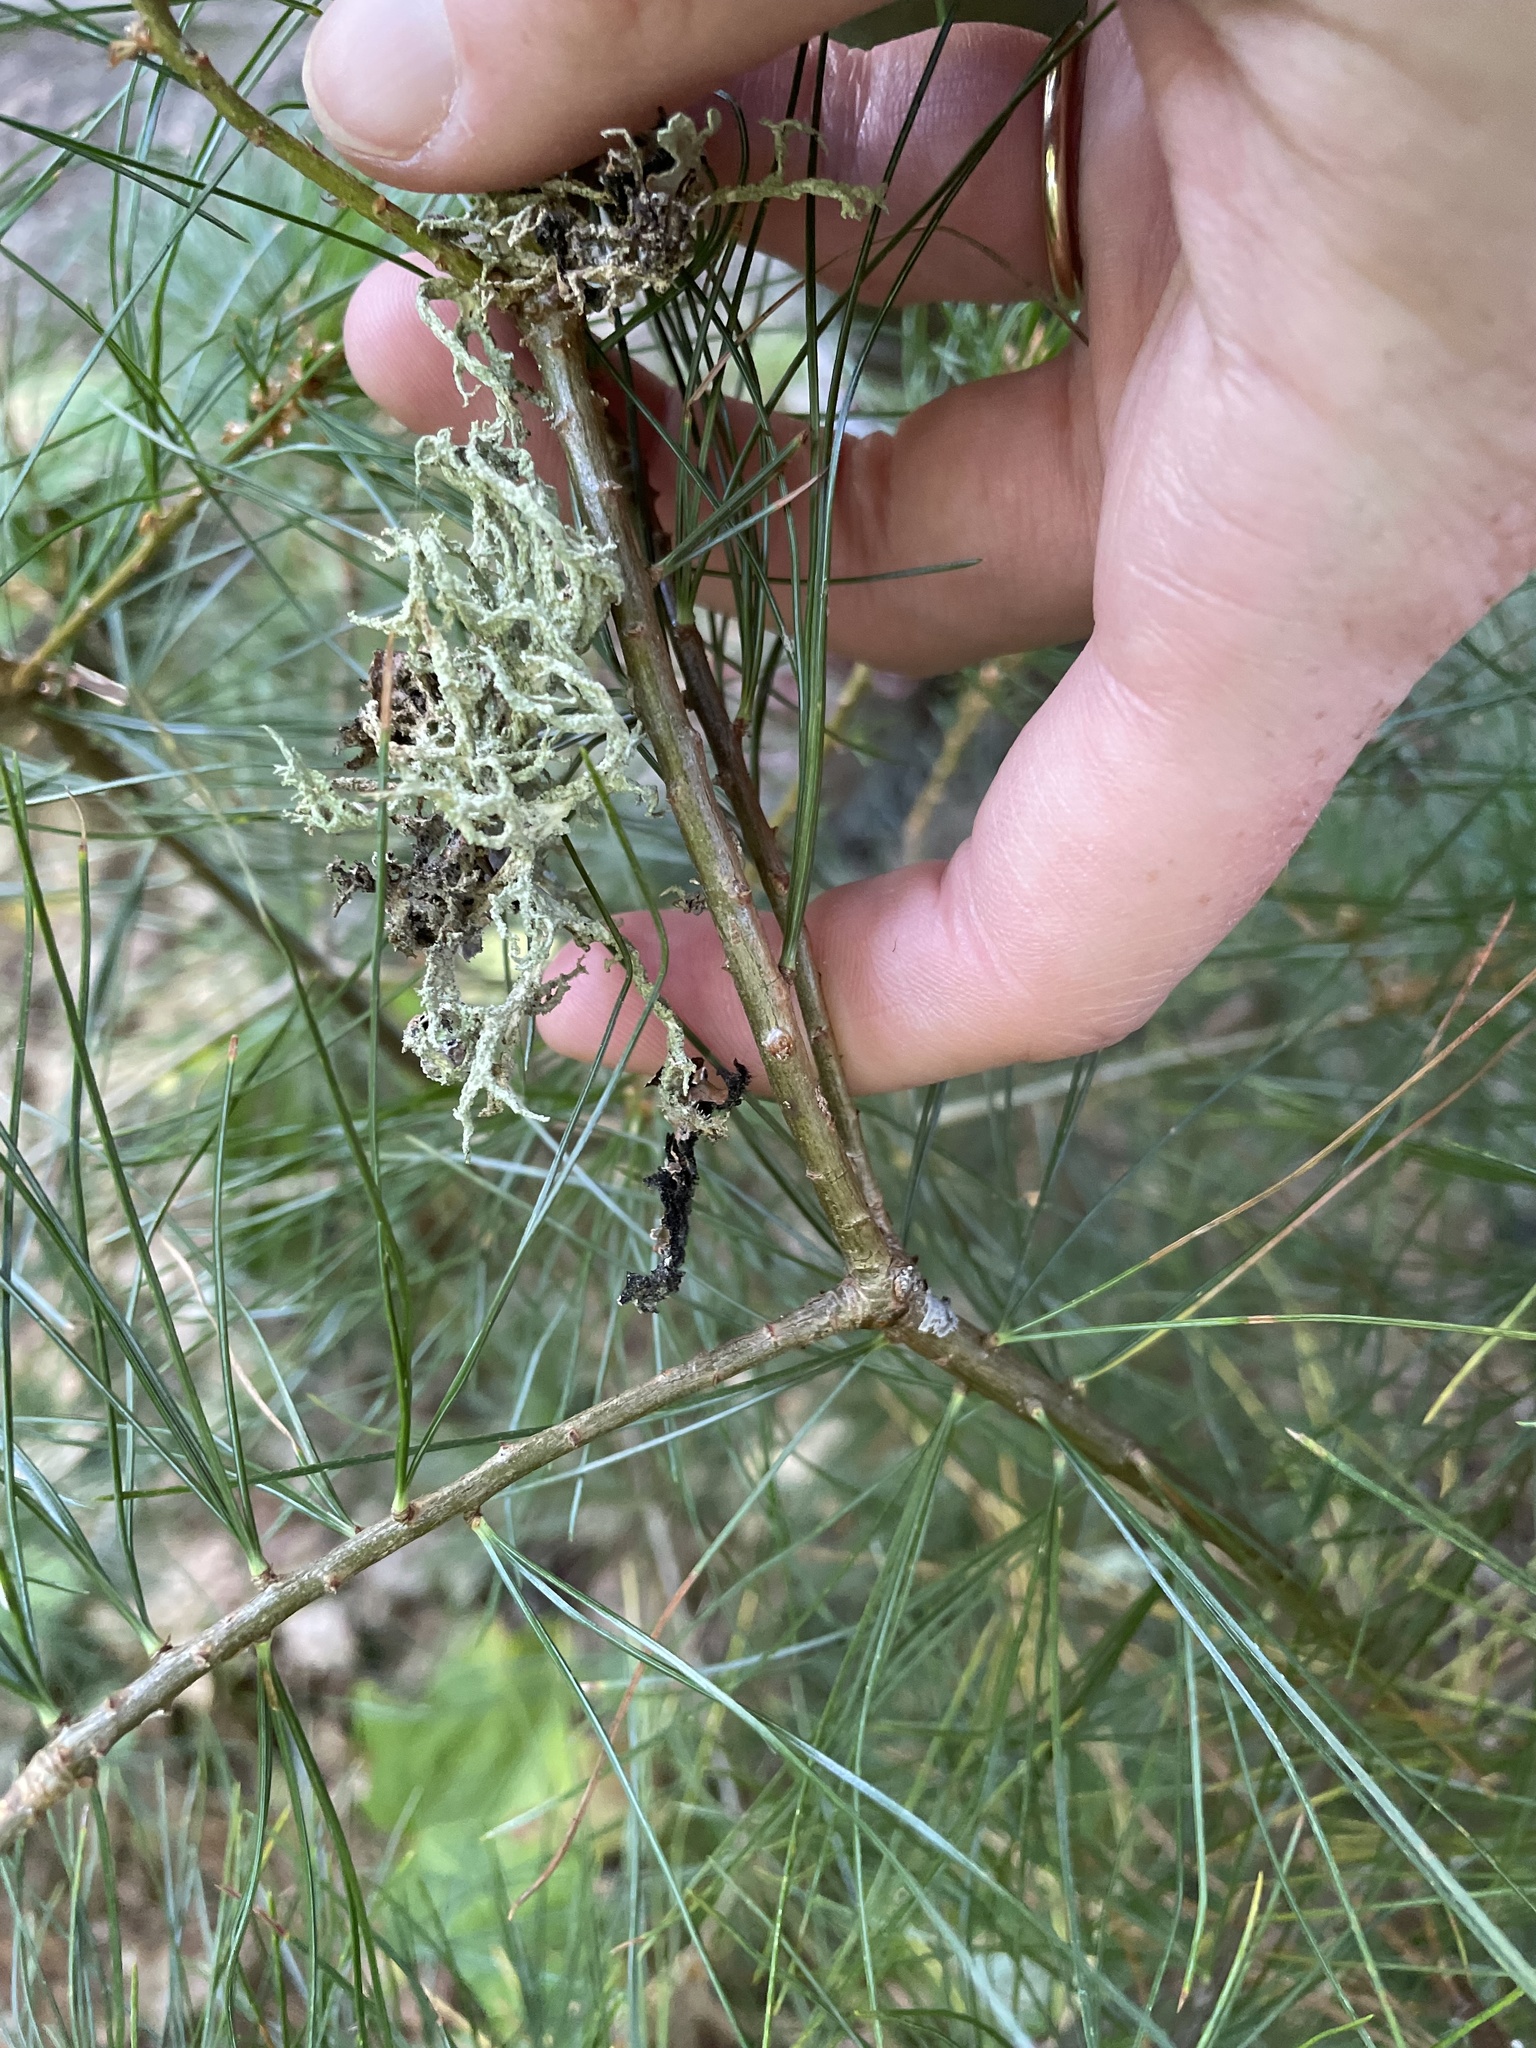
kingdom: Fungi
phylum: Ascomycota
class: Lecanoromycetes
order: Lecanorales
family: Parmeliaceae
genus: Evernia
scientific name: Evernia mesomorpha
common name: Boreal oak moss lichen
